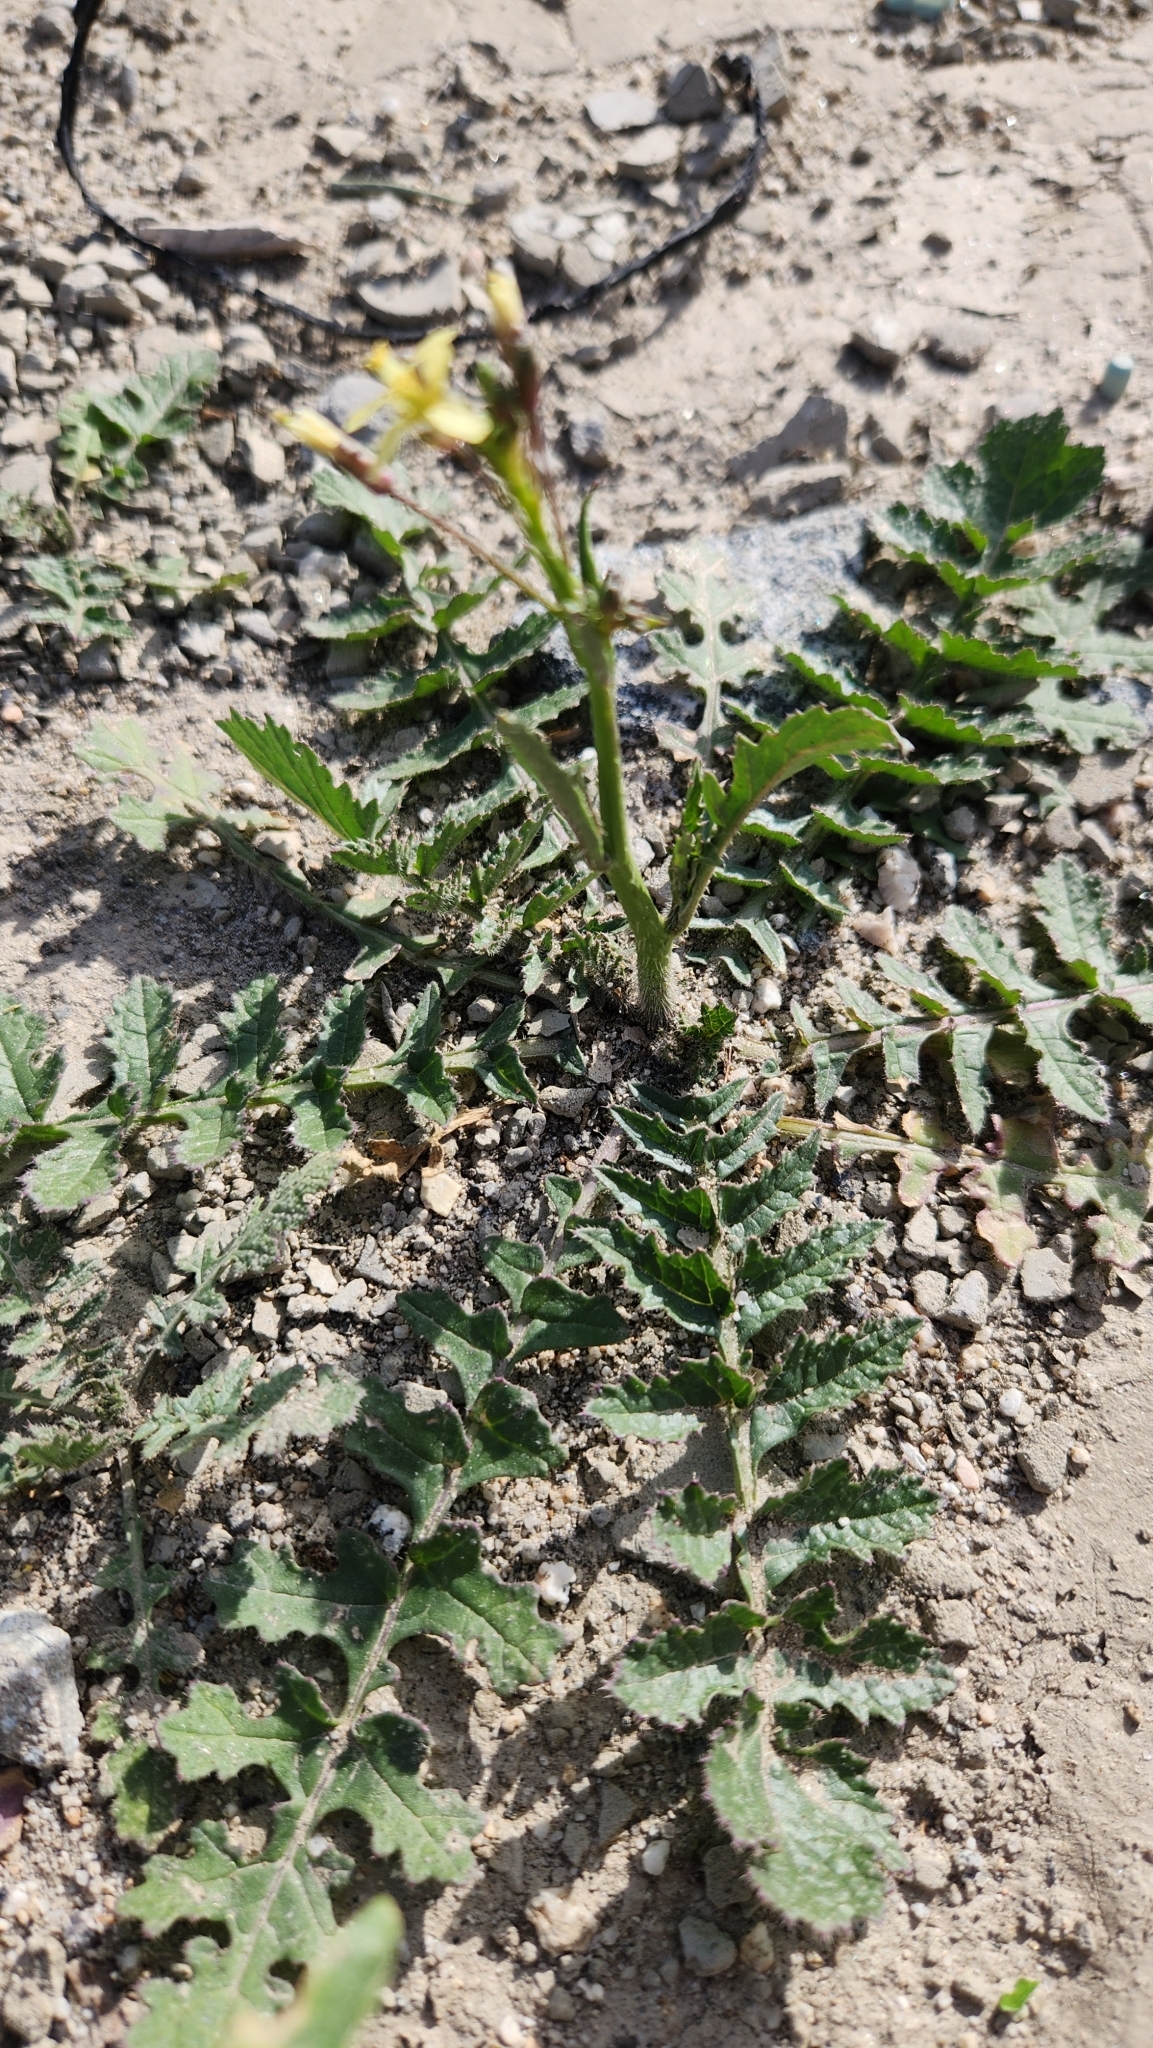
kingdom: Plantae
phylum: Tracheophyta
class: Magnoliopsida
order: Brassicales
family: Brassicaceae
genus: Brassica
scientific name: Brassica tournefortii
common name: Pale cabbage
